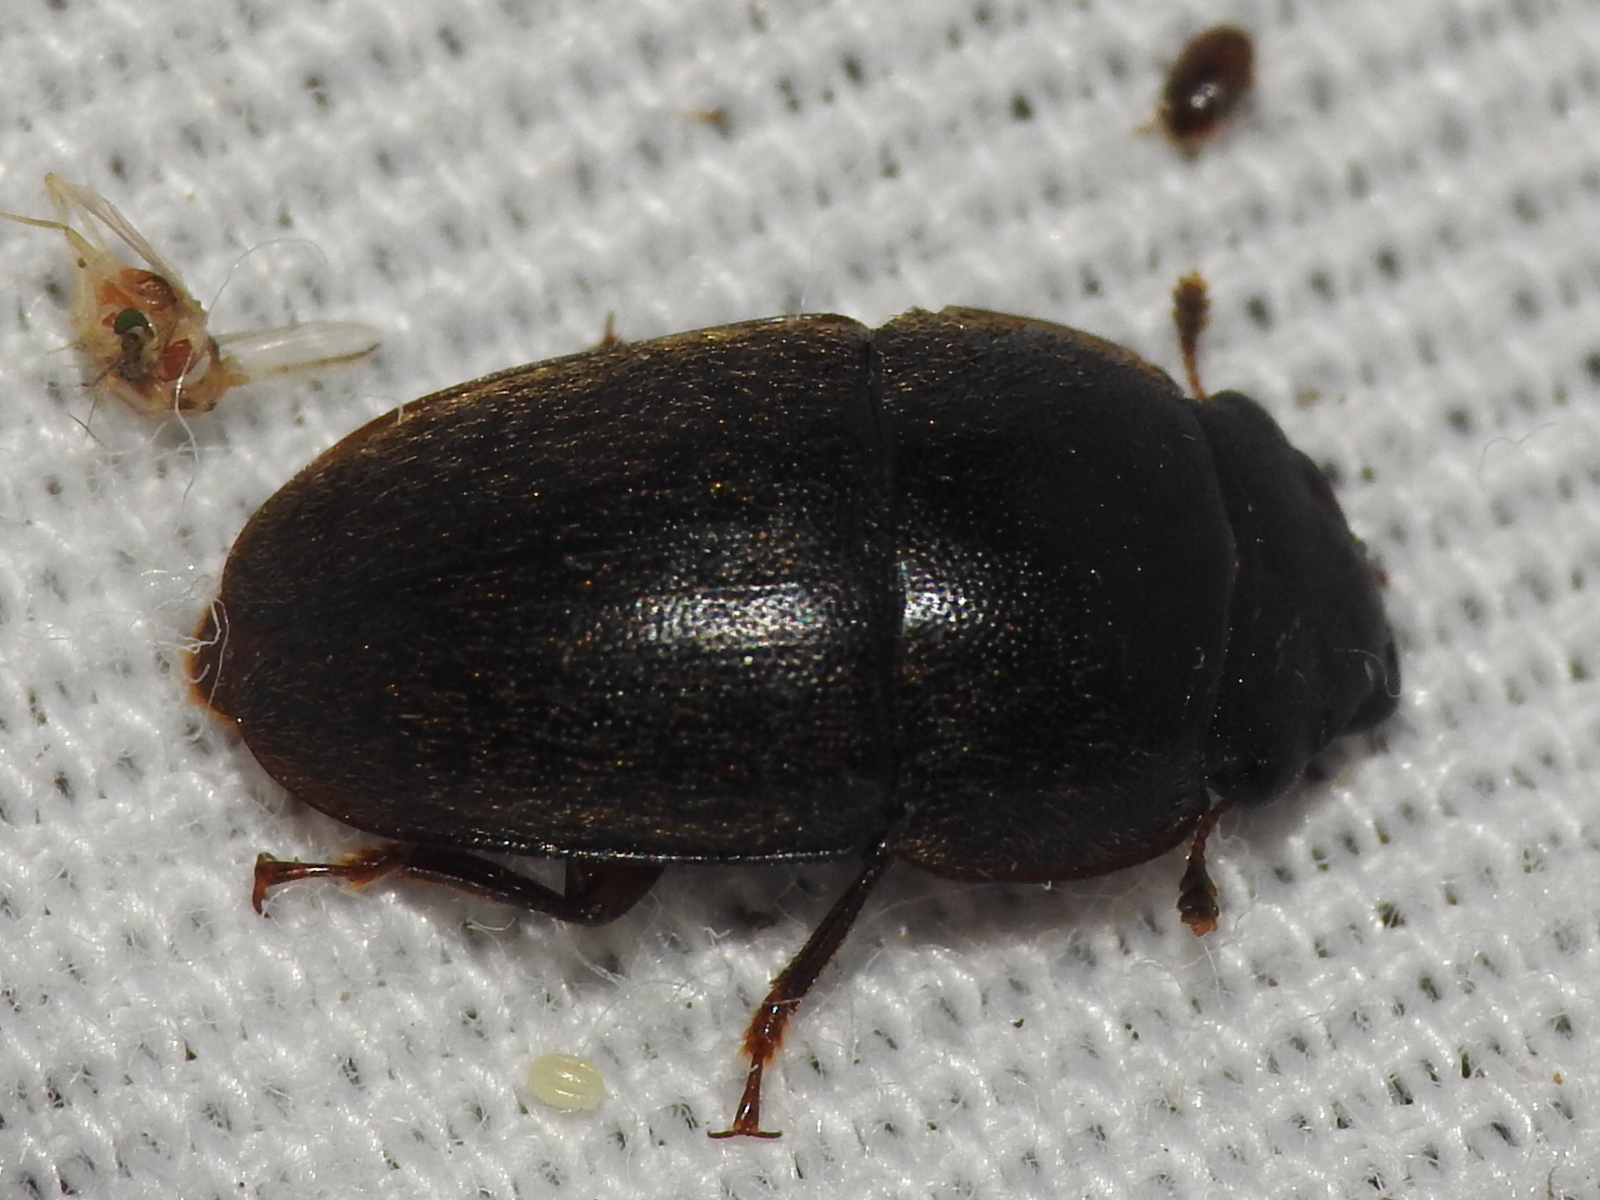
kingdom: Animalia
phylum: Arthropoda
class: Insecta
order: Coleoptera
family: Nitidulidae
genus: Cryptarcha
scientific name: Cryptarcha ampla
